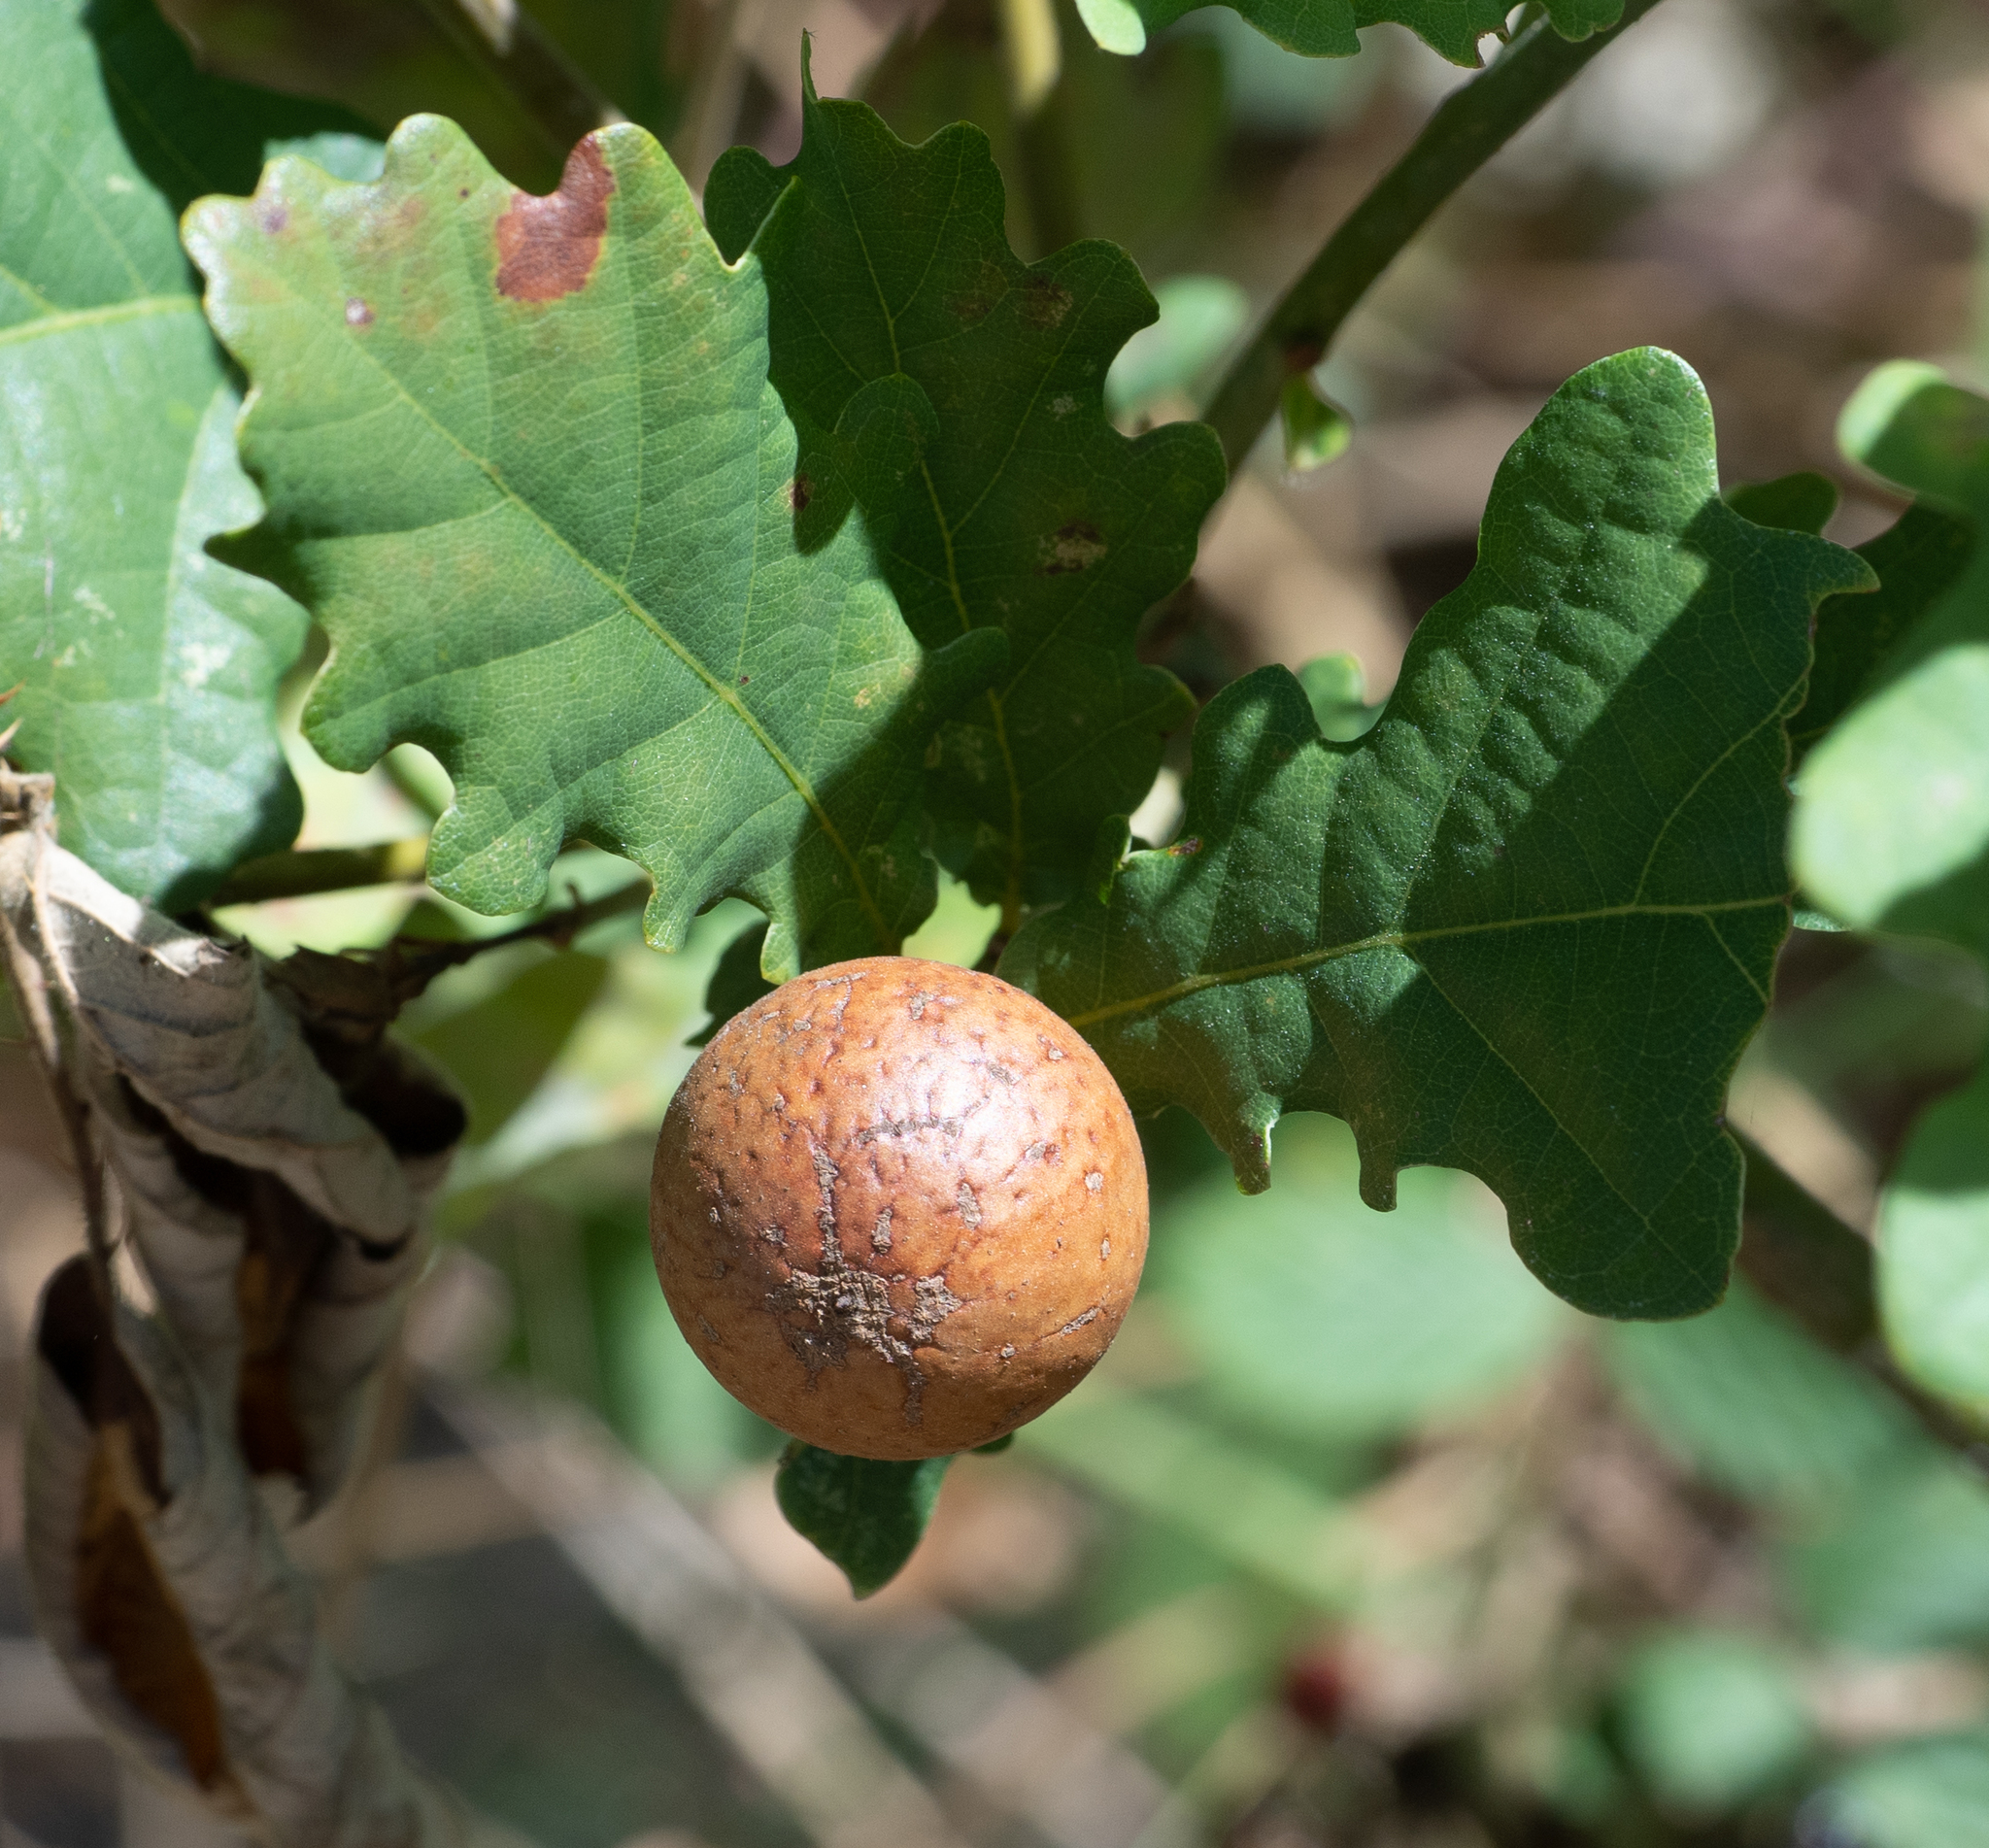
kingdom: Animalia
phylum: Arthropoda
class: Insecta
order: Hymenoptera
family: Cynipidae
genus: Andricus
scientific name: Andricus kollari
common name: Marble gall
